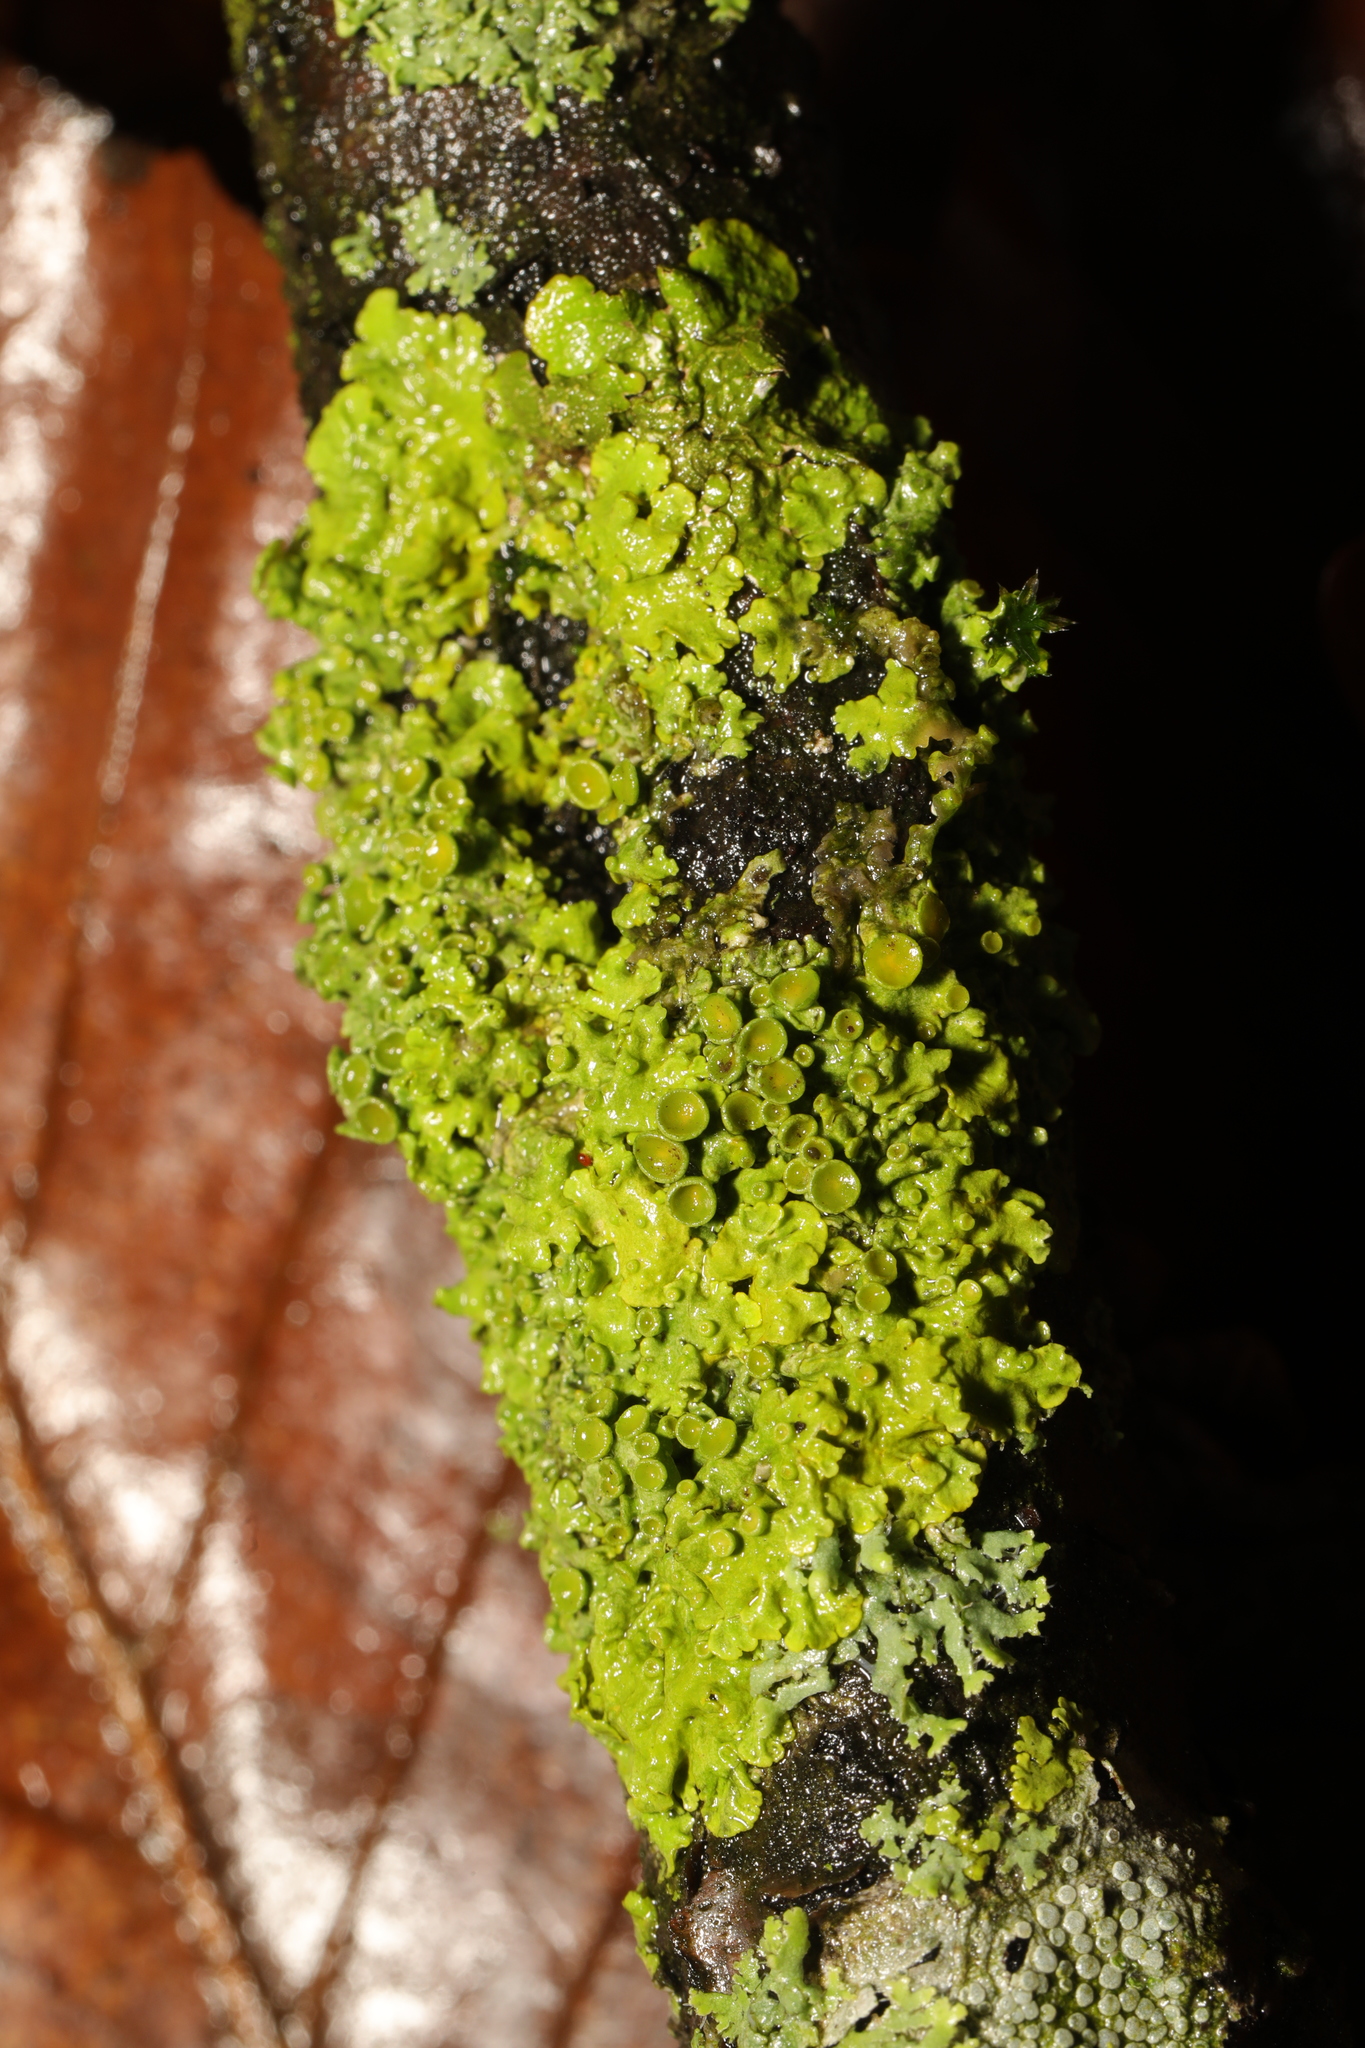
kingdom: Fungi
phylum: Ascomycota
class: Lecanoromycetes
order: Teloschistales
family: Teloschistaceae
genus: Xanthoria
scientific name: Xanthoria parietina
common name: Common orange lichen
